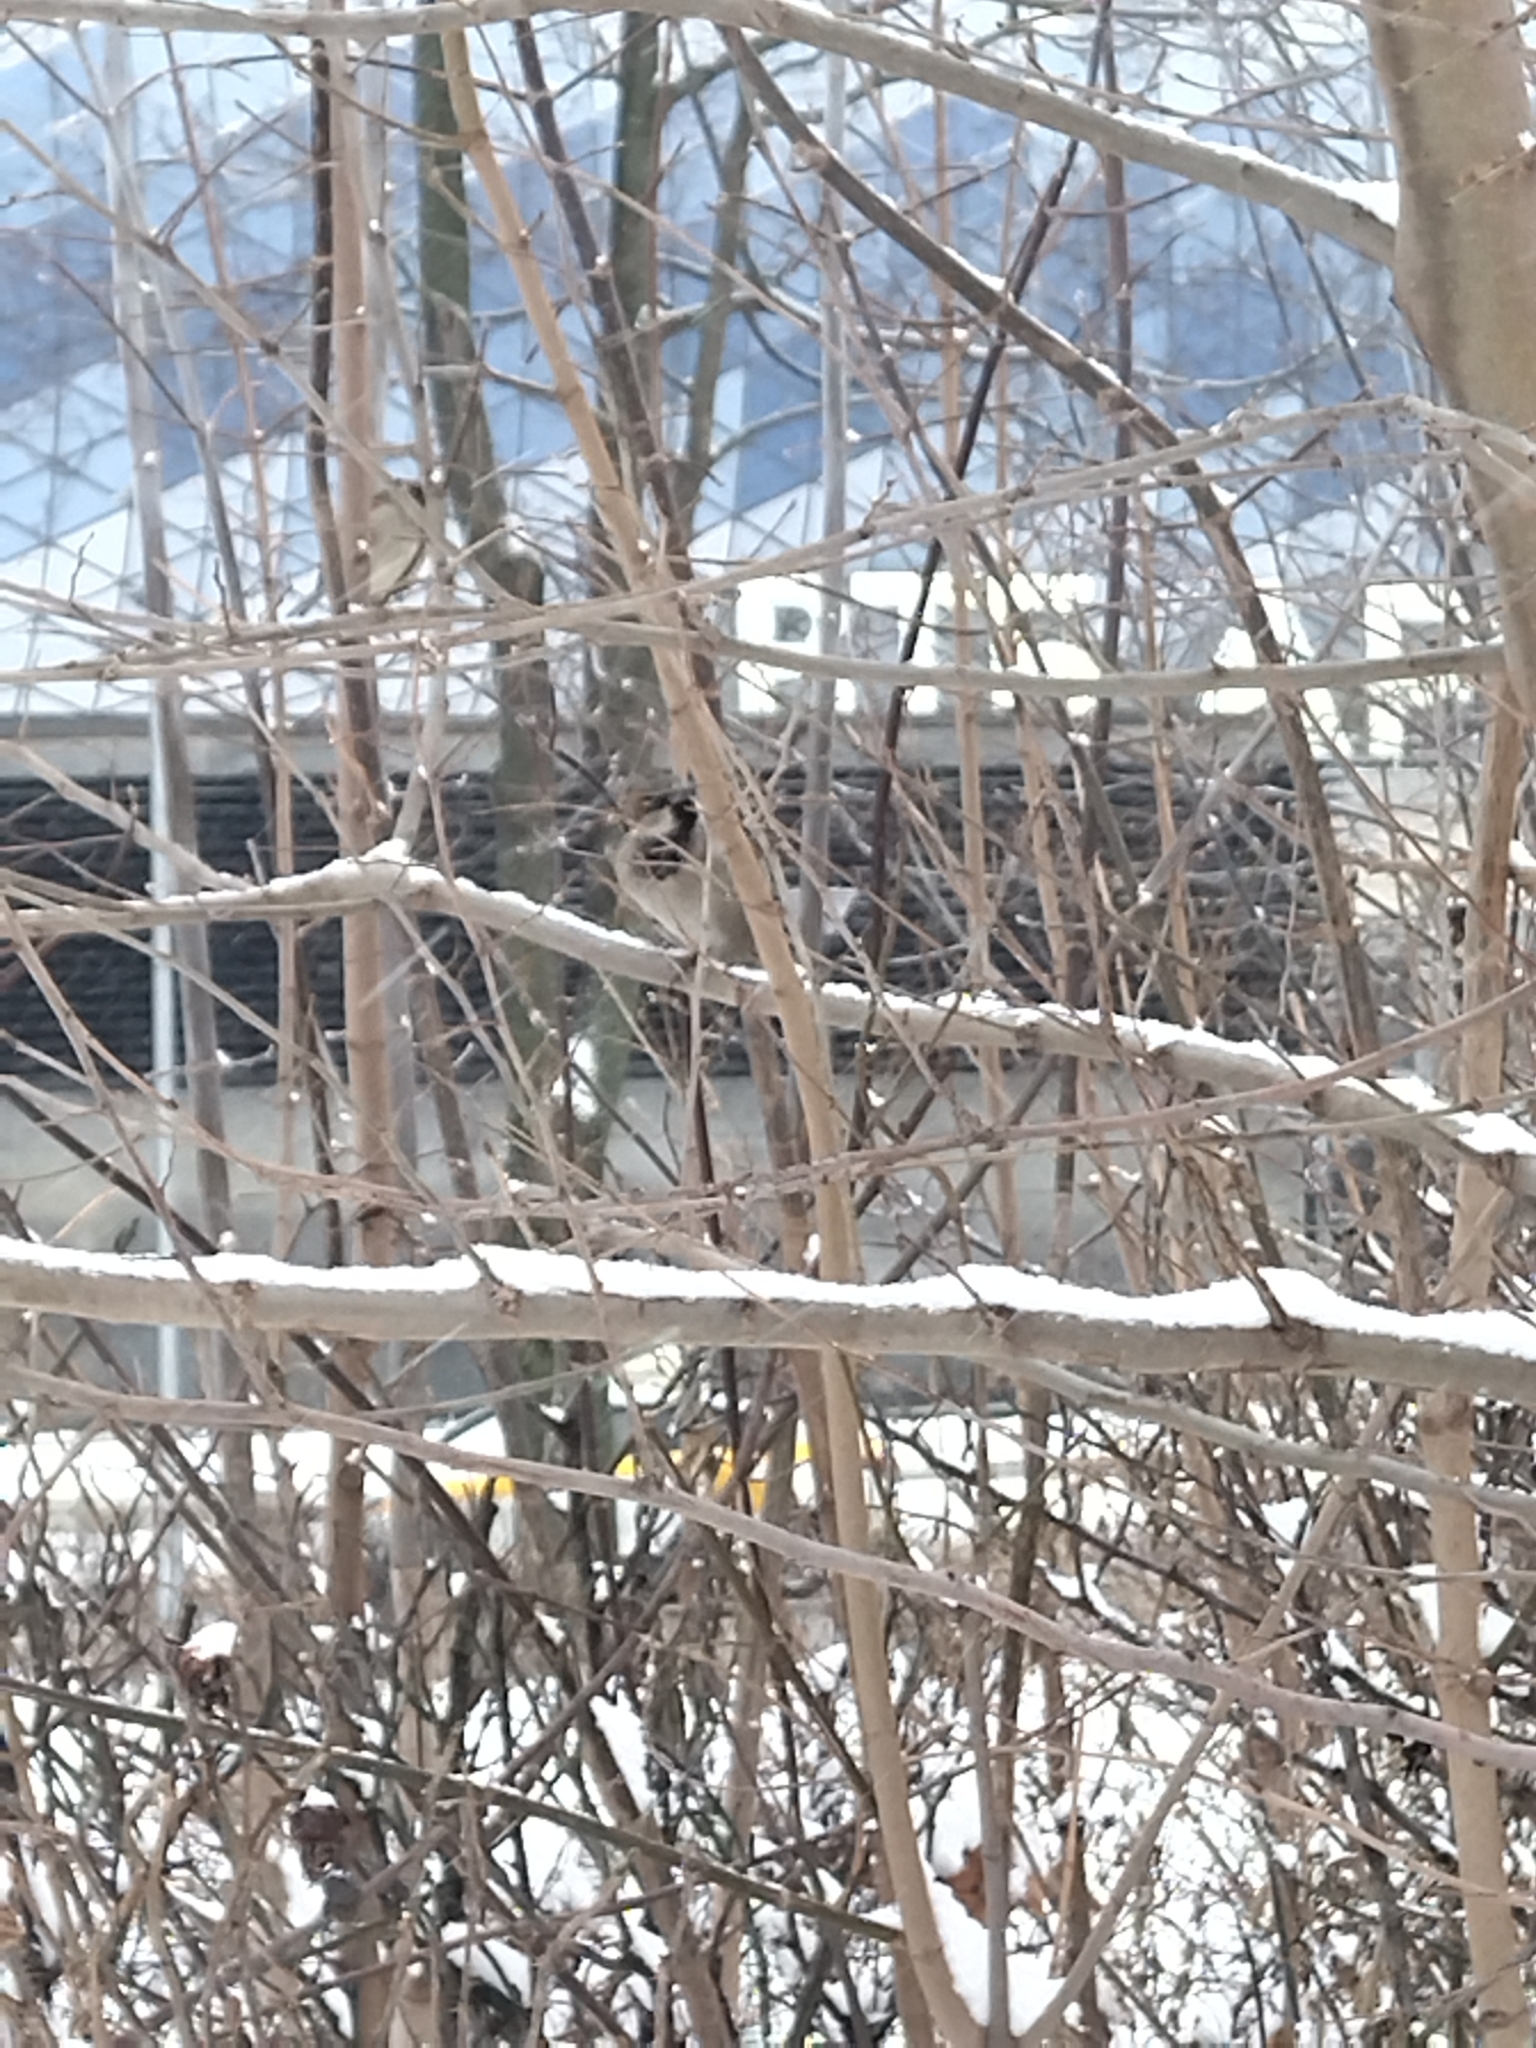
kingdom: Animalia
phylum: Chordata
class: Aves
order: Passeriformes
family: Passeridae
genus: Passer
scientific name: Passer domesticus
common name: House sparrow
